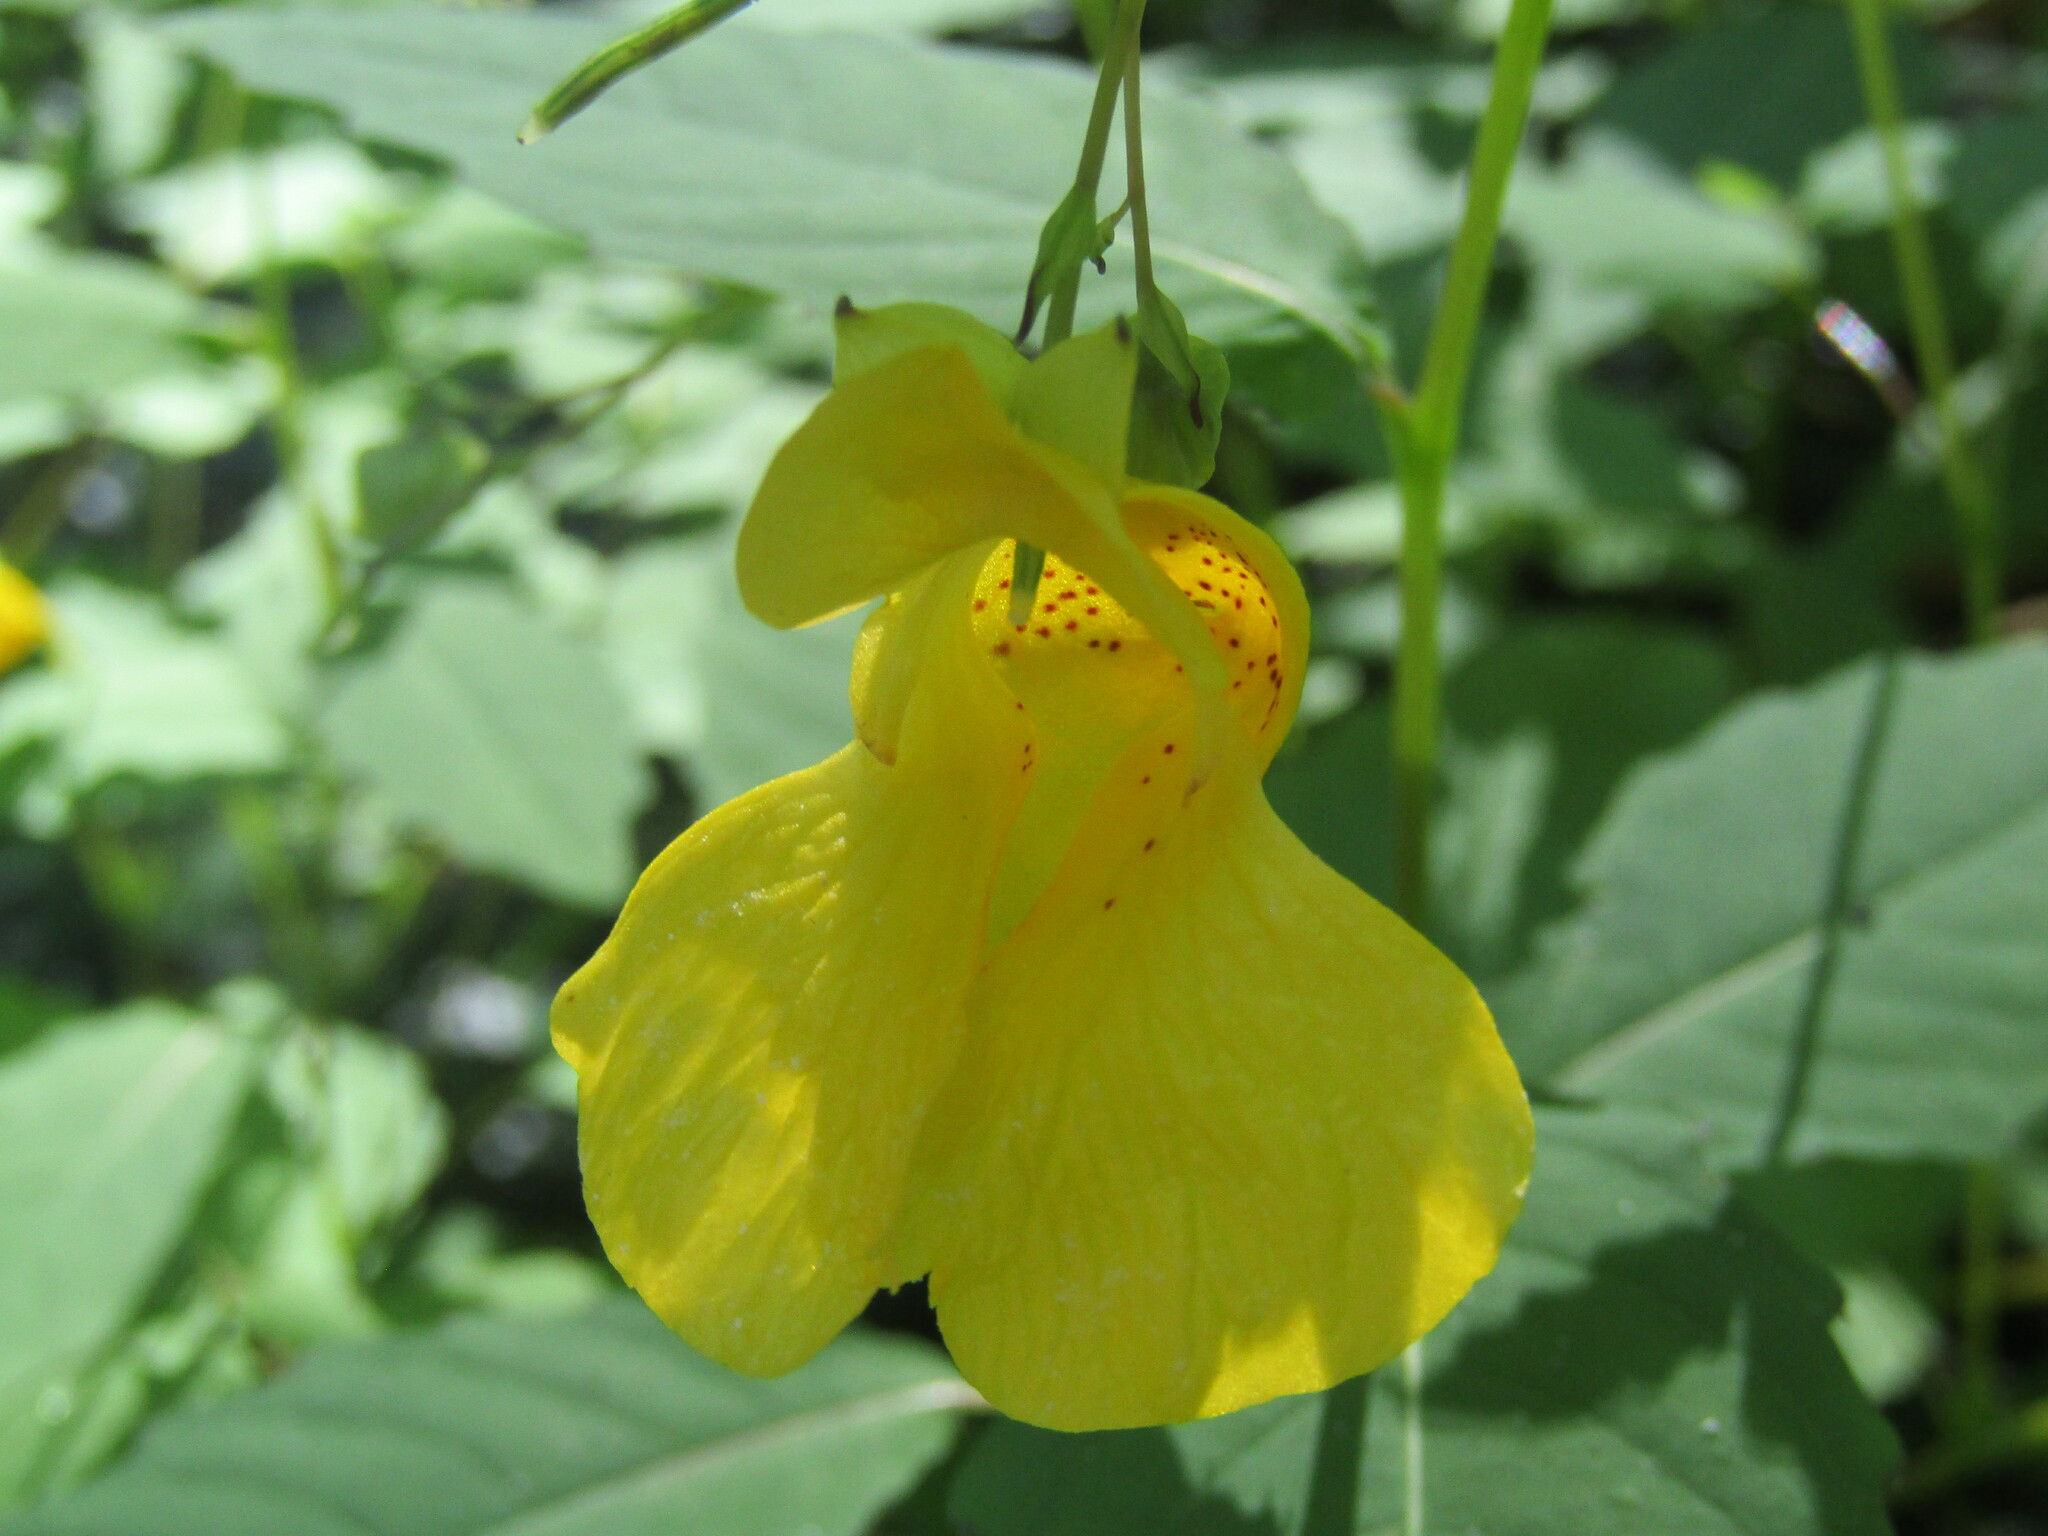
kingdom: Plantae
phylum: Tracheophyta
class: Magnoliopsida
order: Ericales
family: Balsaminaceae
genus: Impatiens
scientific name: Impatiens pallida
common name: Pale snapweed
